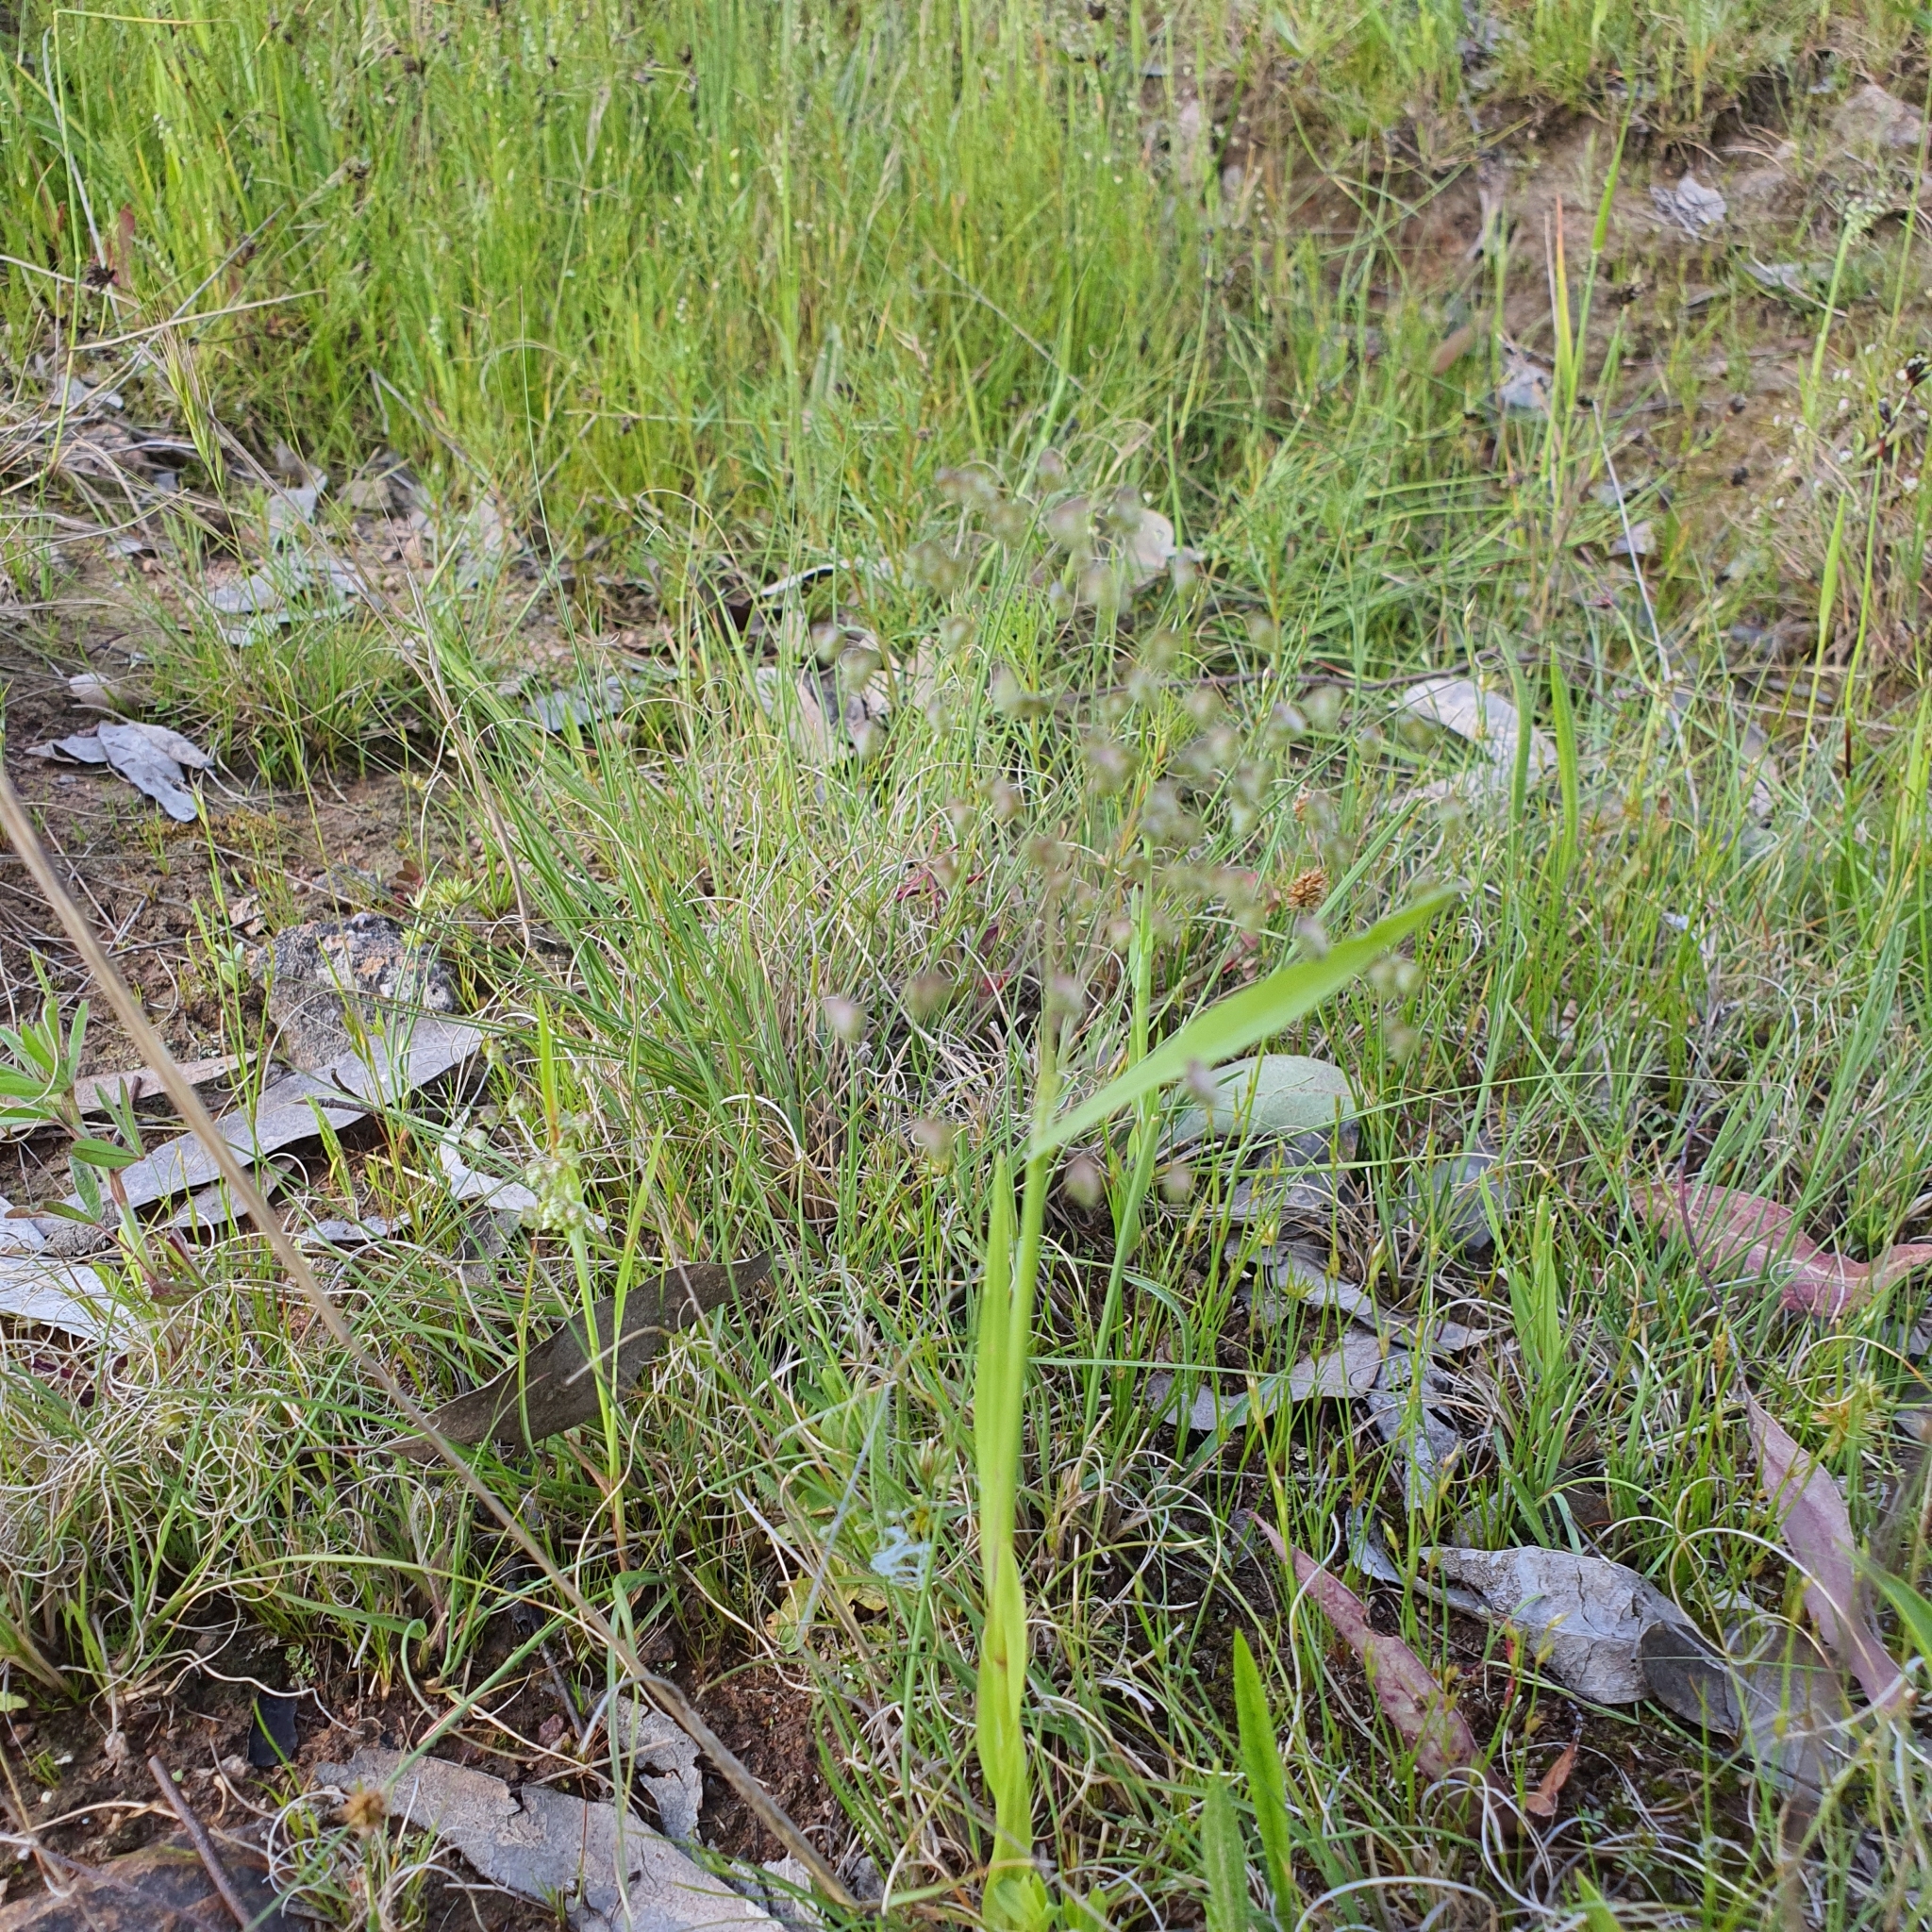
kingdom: Plantae
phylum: Tracheophyta
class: Liliopsida
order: Poales
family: Poaceae
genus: Briza
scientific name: Briza minor
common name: Lesser quaking-grass
